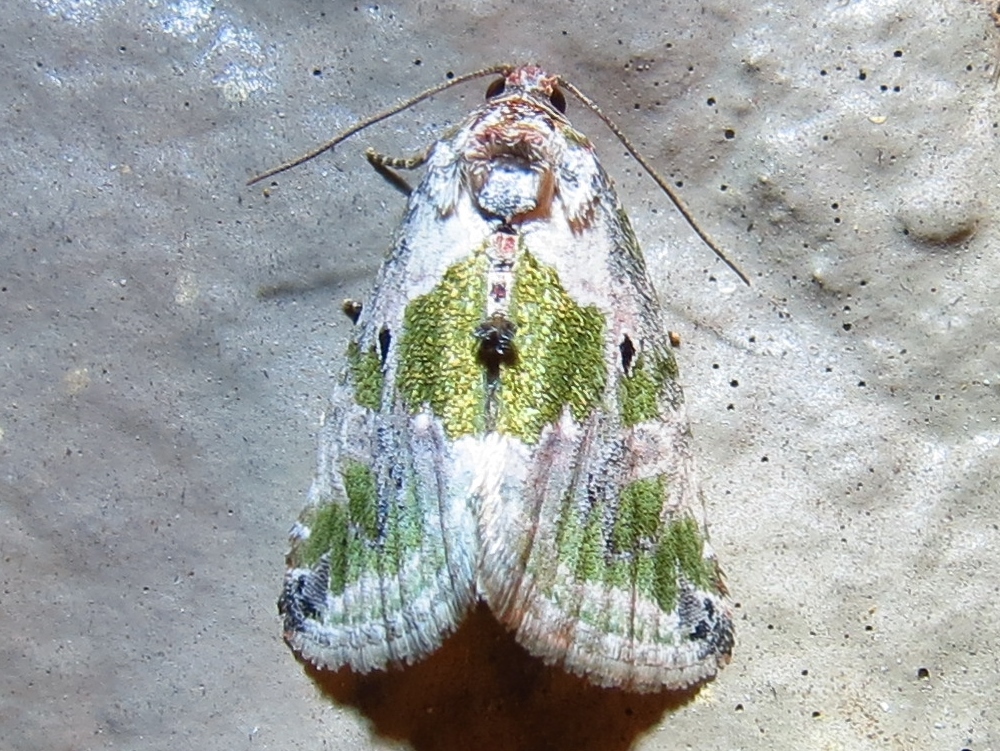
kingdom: Animalia
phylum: Arthropoda
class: Insecta
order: Lepidoptera
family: Noctuidae
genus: Maliattha
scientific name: Maliattha synochitis
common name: Black-dotted glyph
